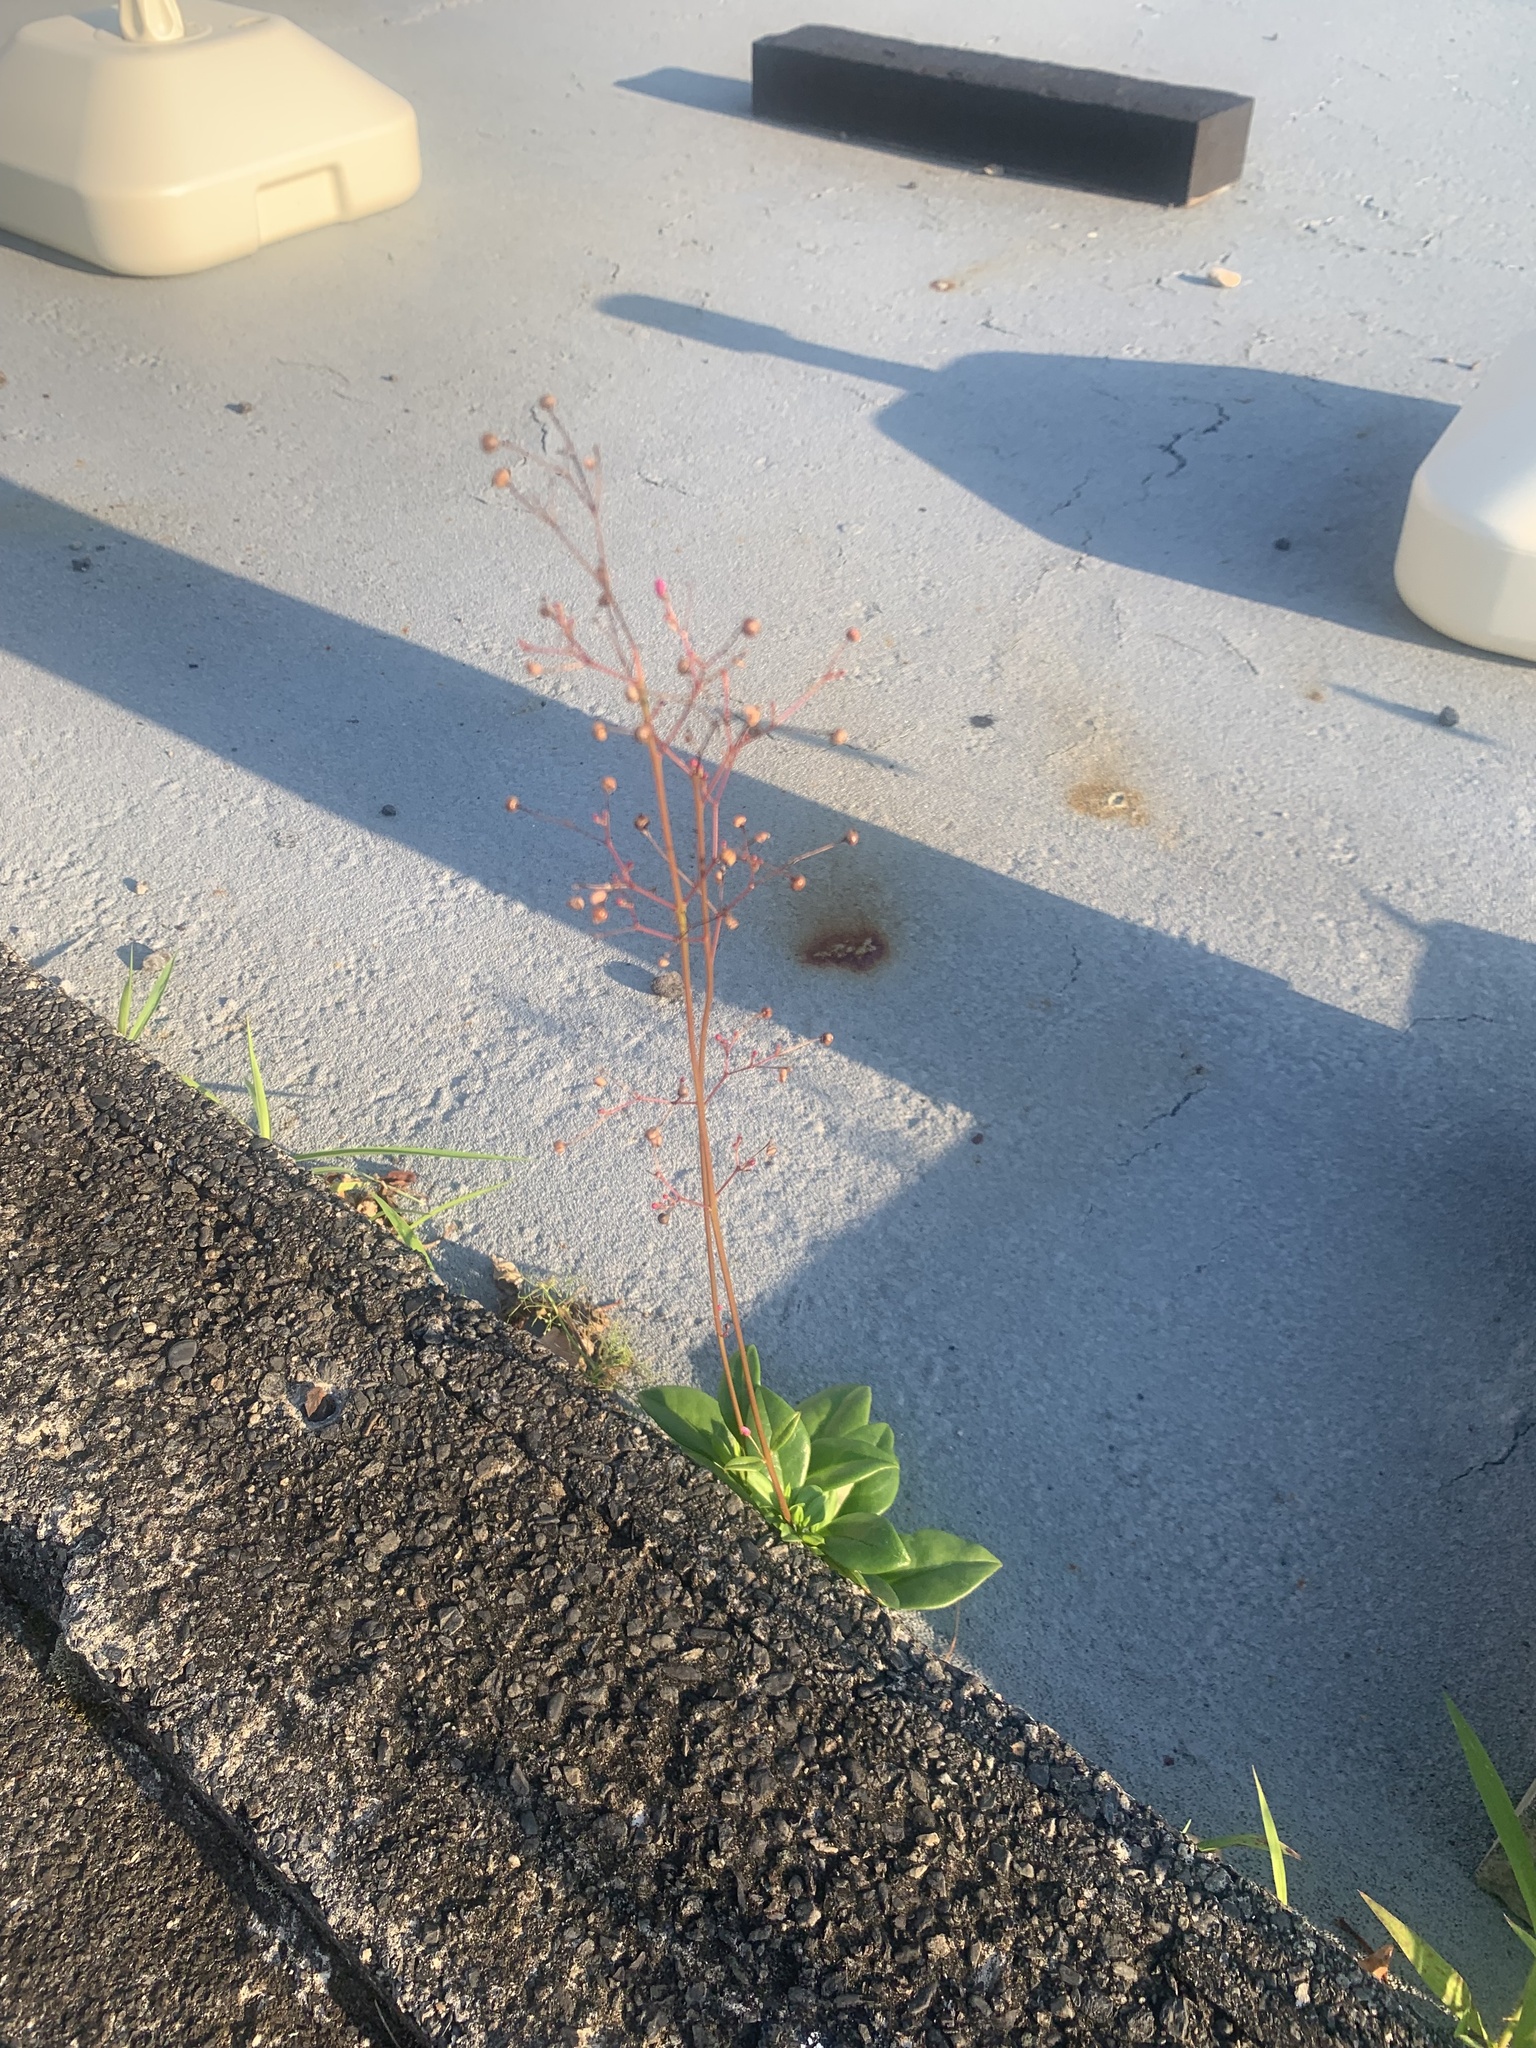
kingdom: Plantae
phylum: Tracheophyta
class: Magnoliopsida
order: Caryophyllales
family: Talinaceae
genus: Talinum
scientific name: Talinum paniculatum
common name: Jewels of opar
